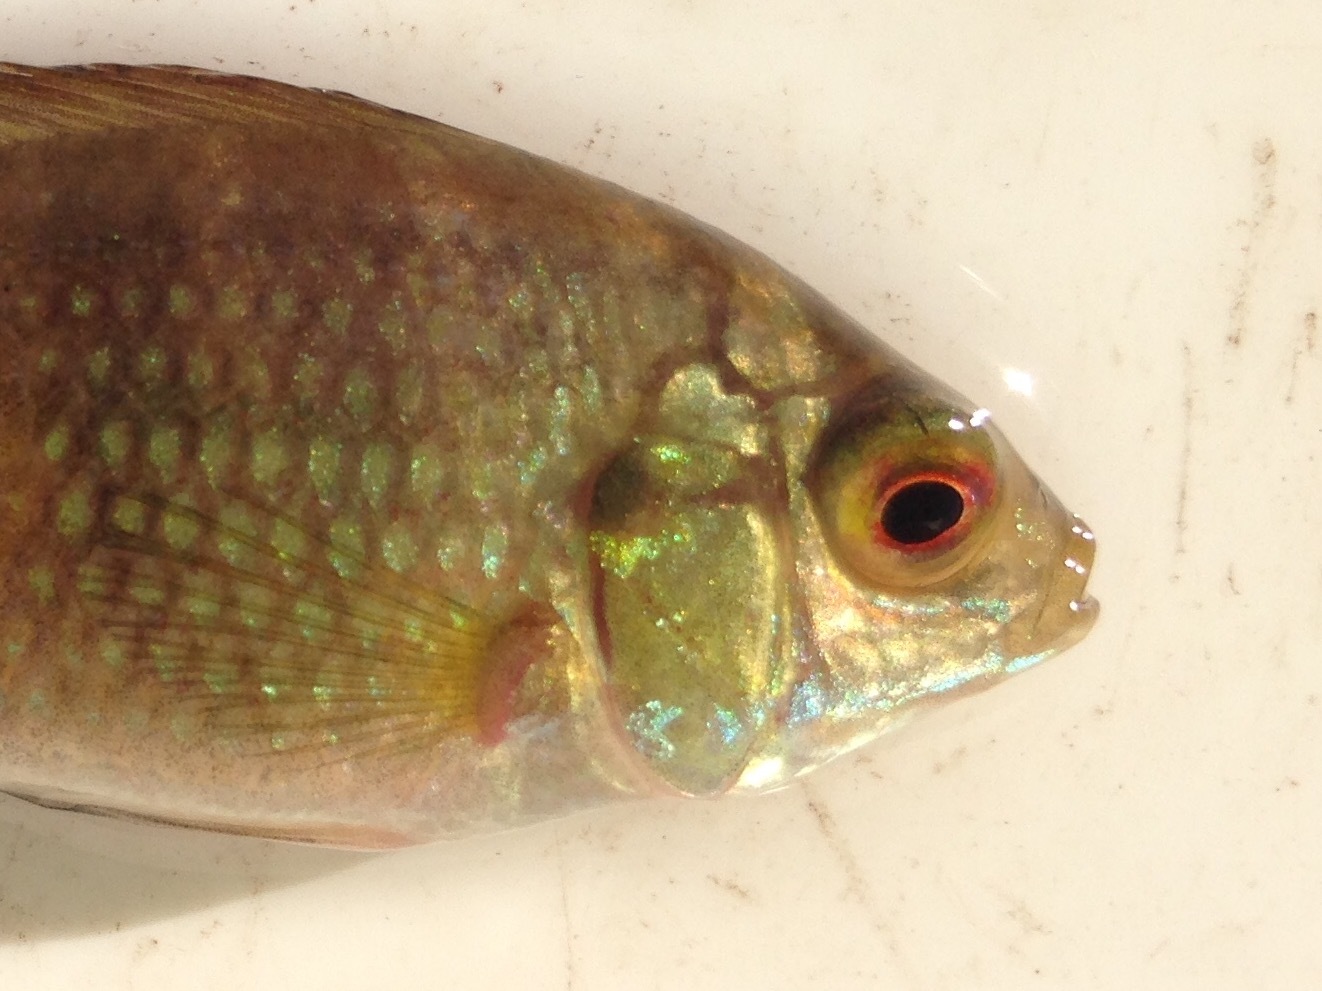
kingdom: Animalia
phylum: Chordata
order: Perciformes
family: Cichlidae
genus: Tilapia
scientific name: Tilapia sparrmanii
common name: Banded tilapia
